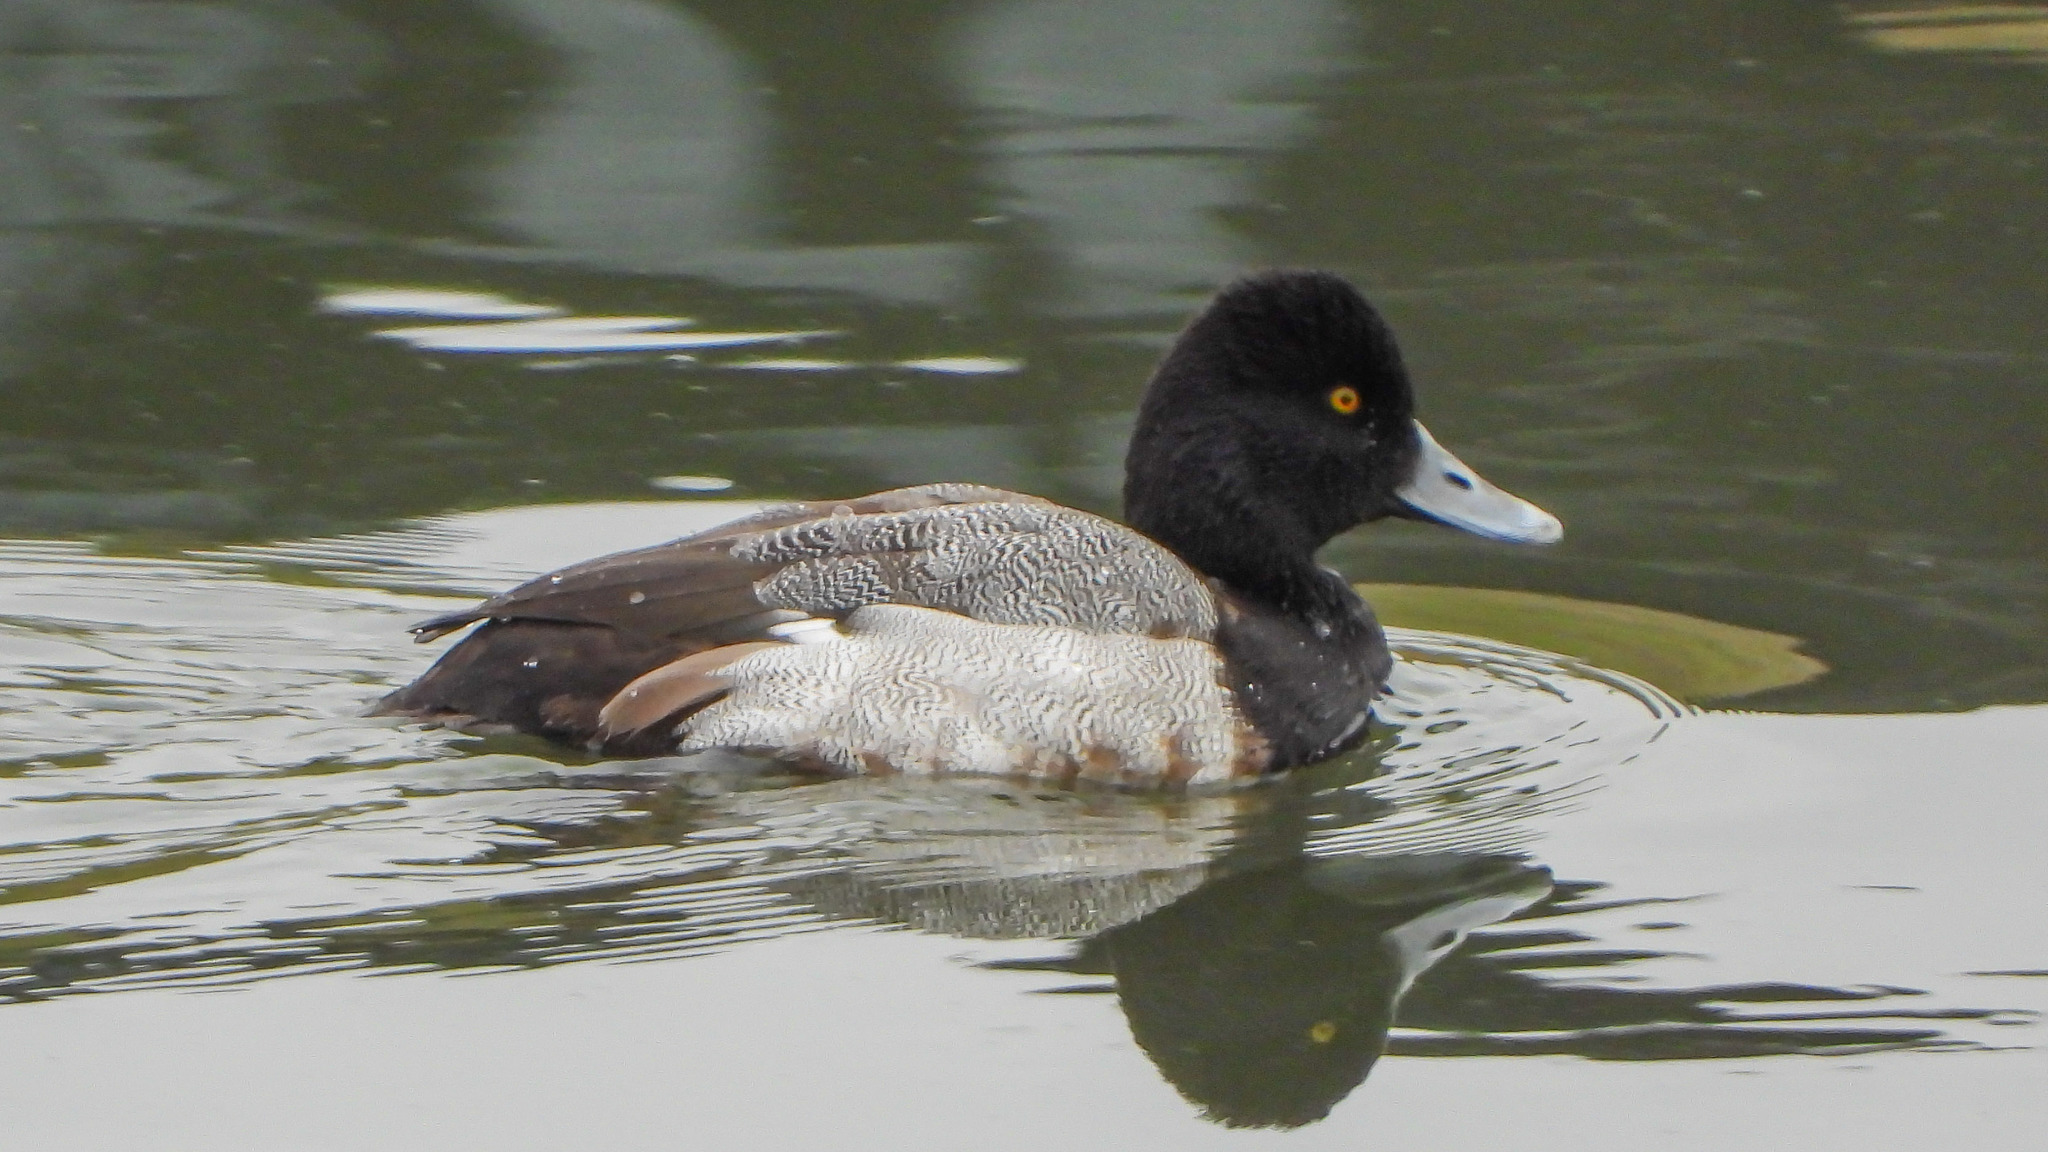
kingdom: Animalia
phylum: Chordata
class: Aves
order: Anseriformes
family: Anatidae
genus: Aythya
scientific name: Aythya affinis
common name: Lesser scaup
